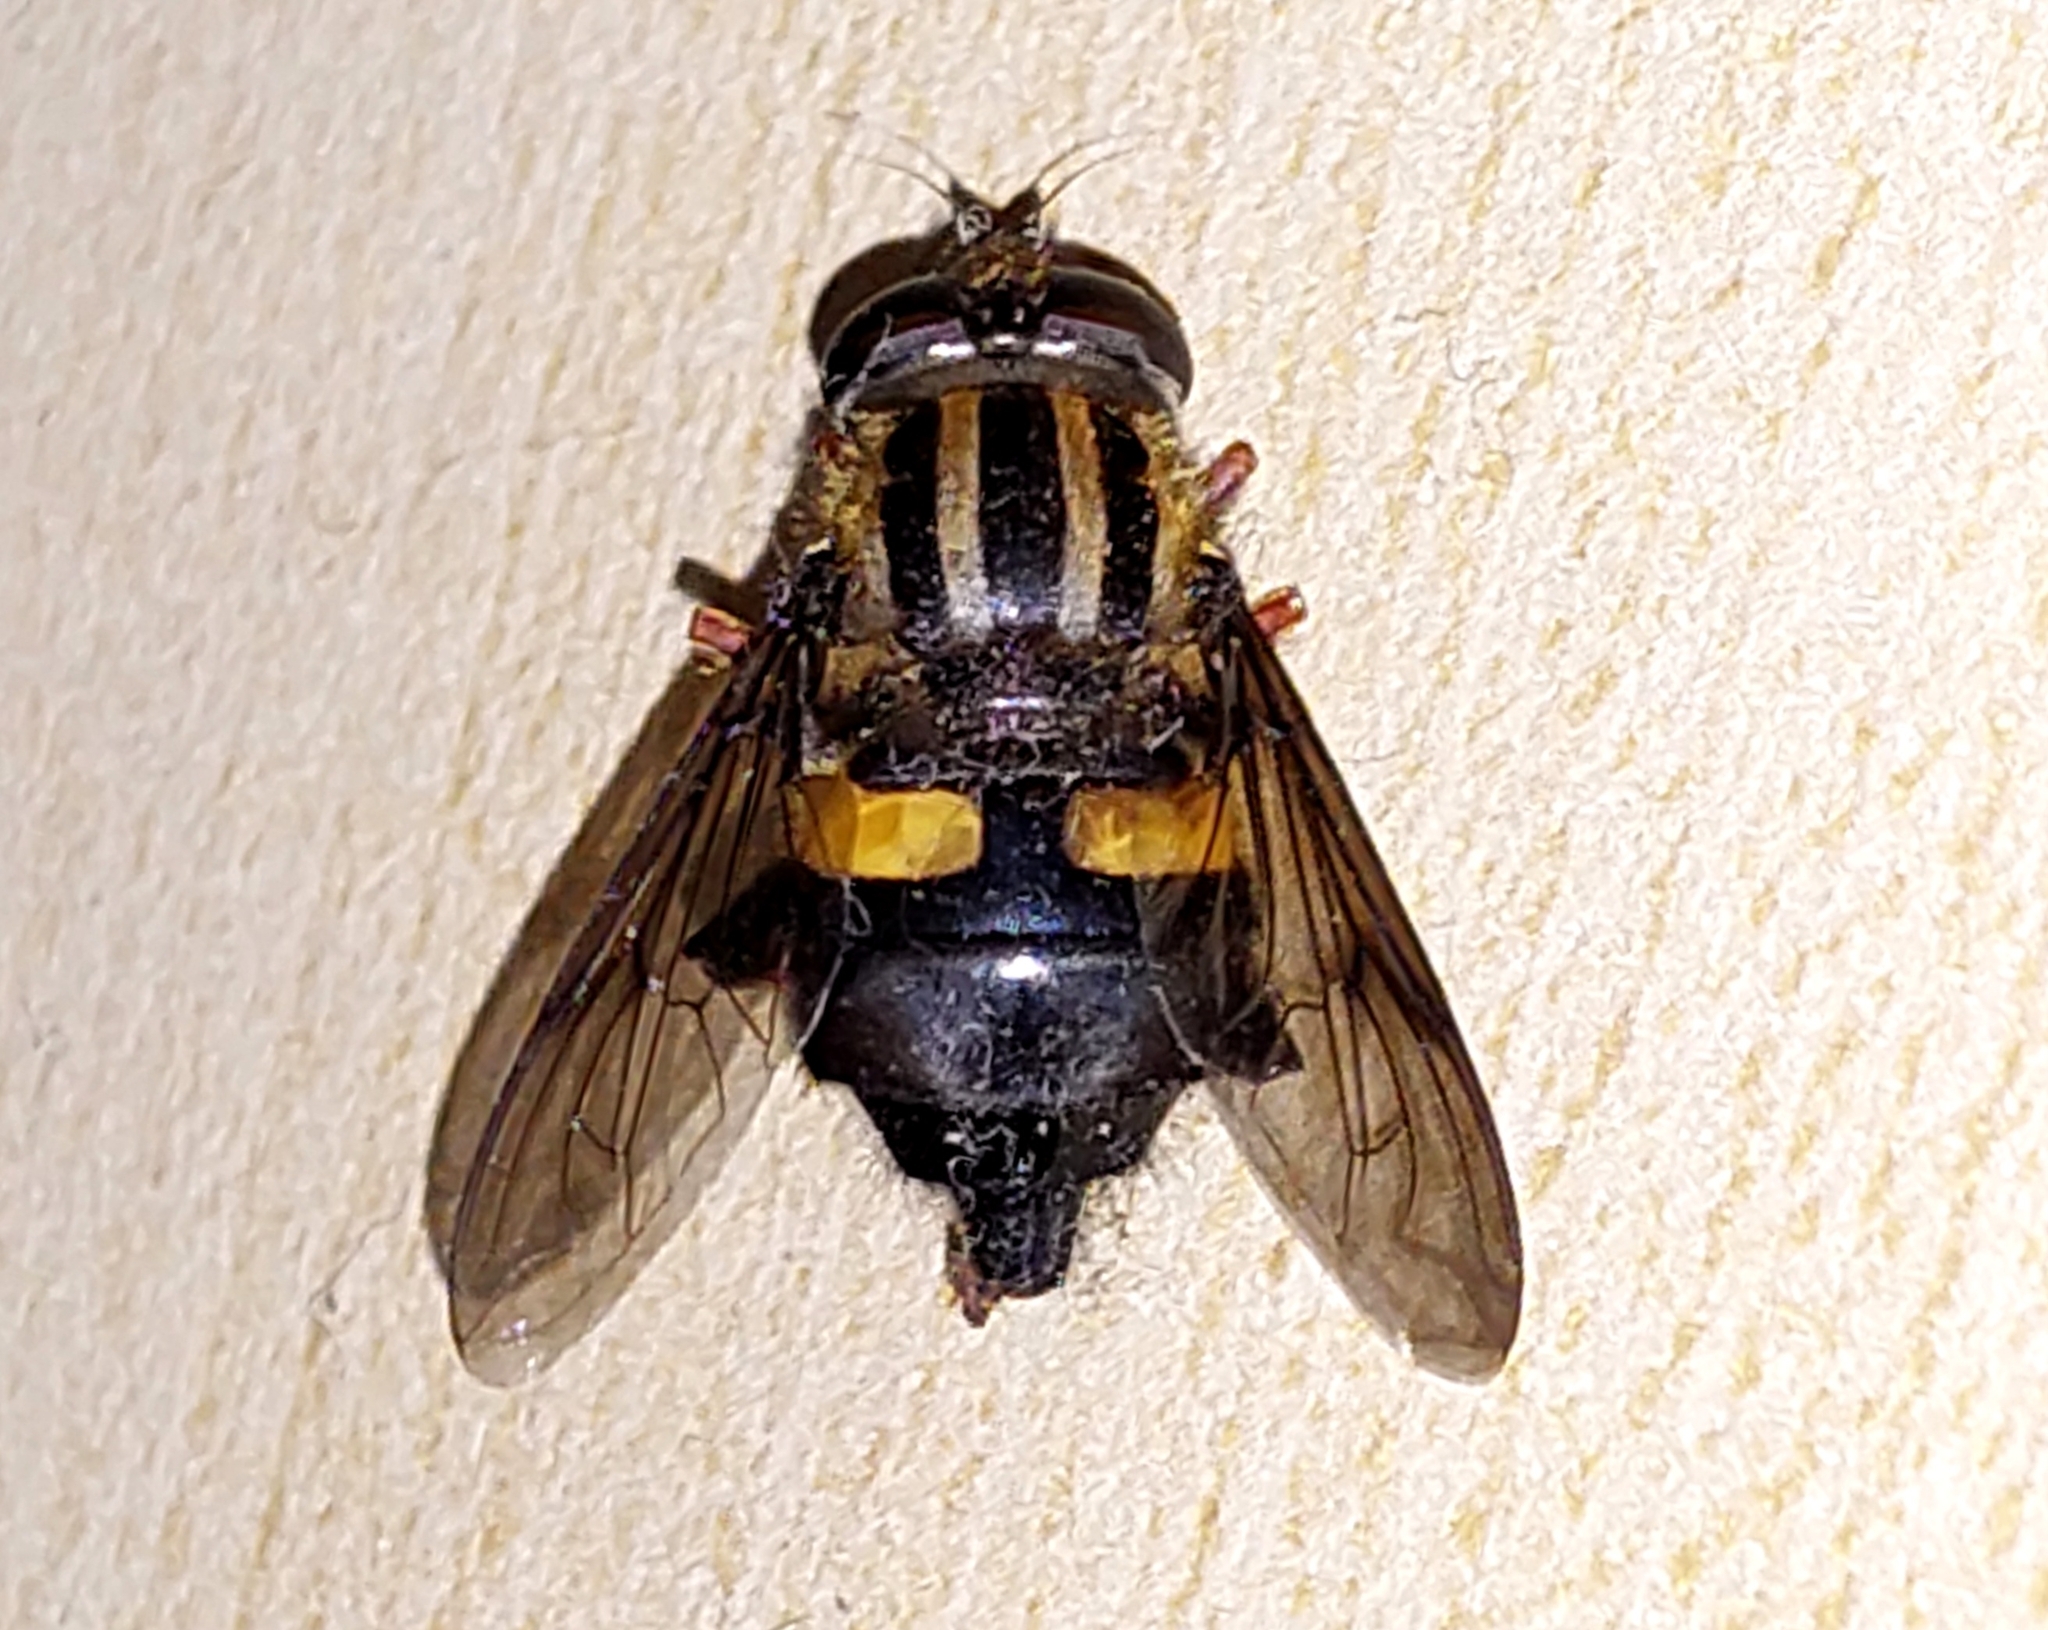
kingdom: Animalia
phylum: Arthropoda
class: Insecta
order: Diptera
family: Syrphidae
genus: Helophilus
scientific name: Helophilus seelandicus
